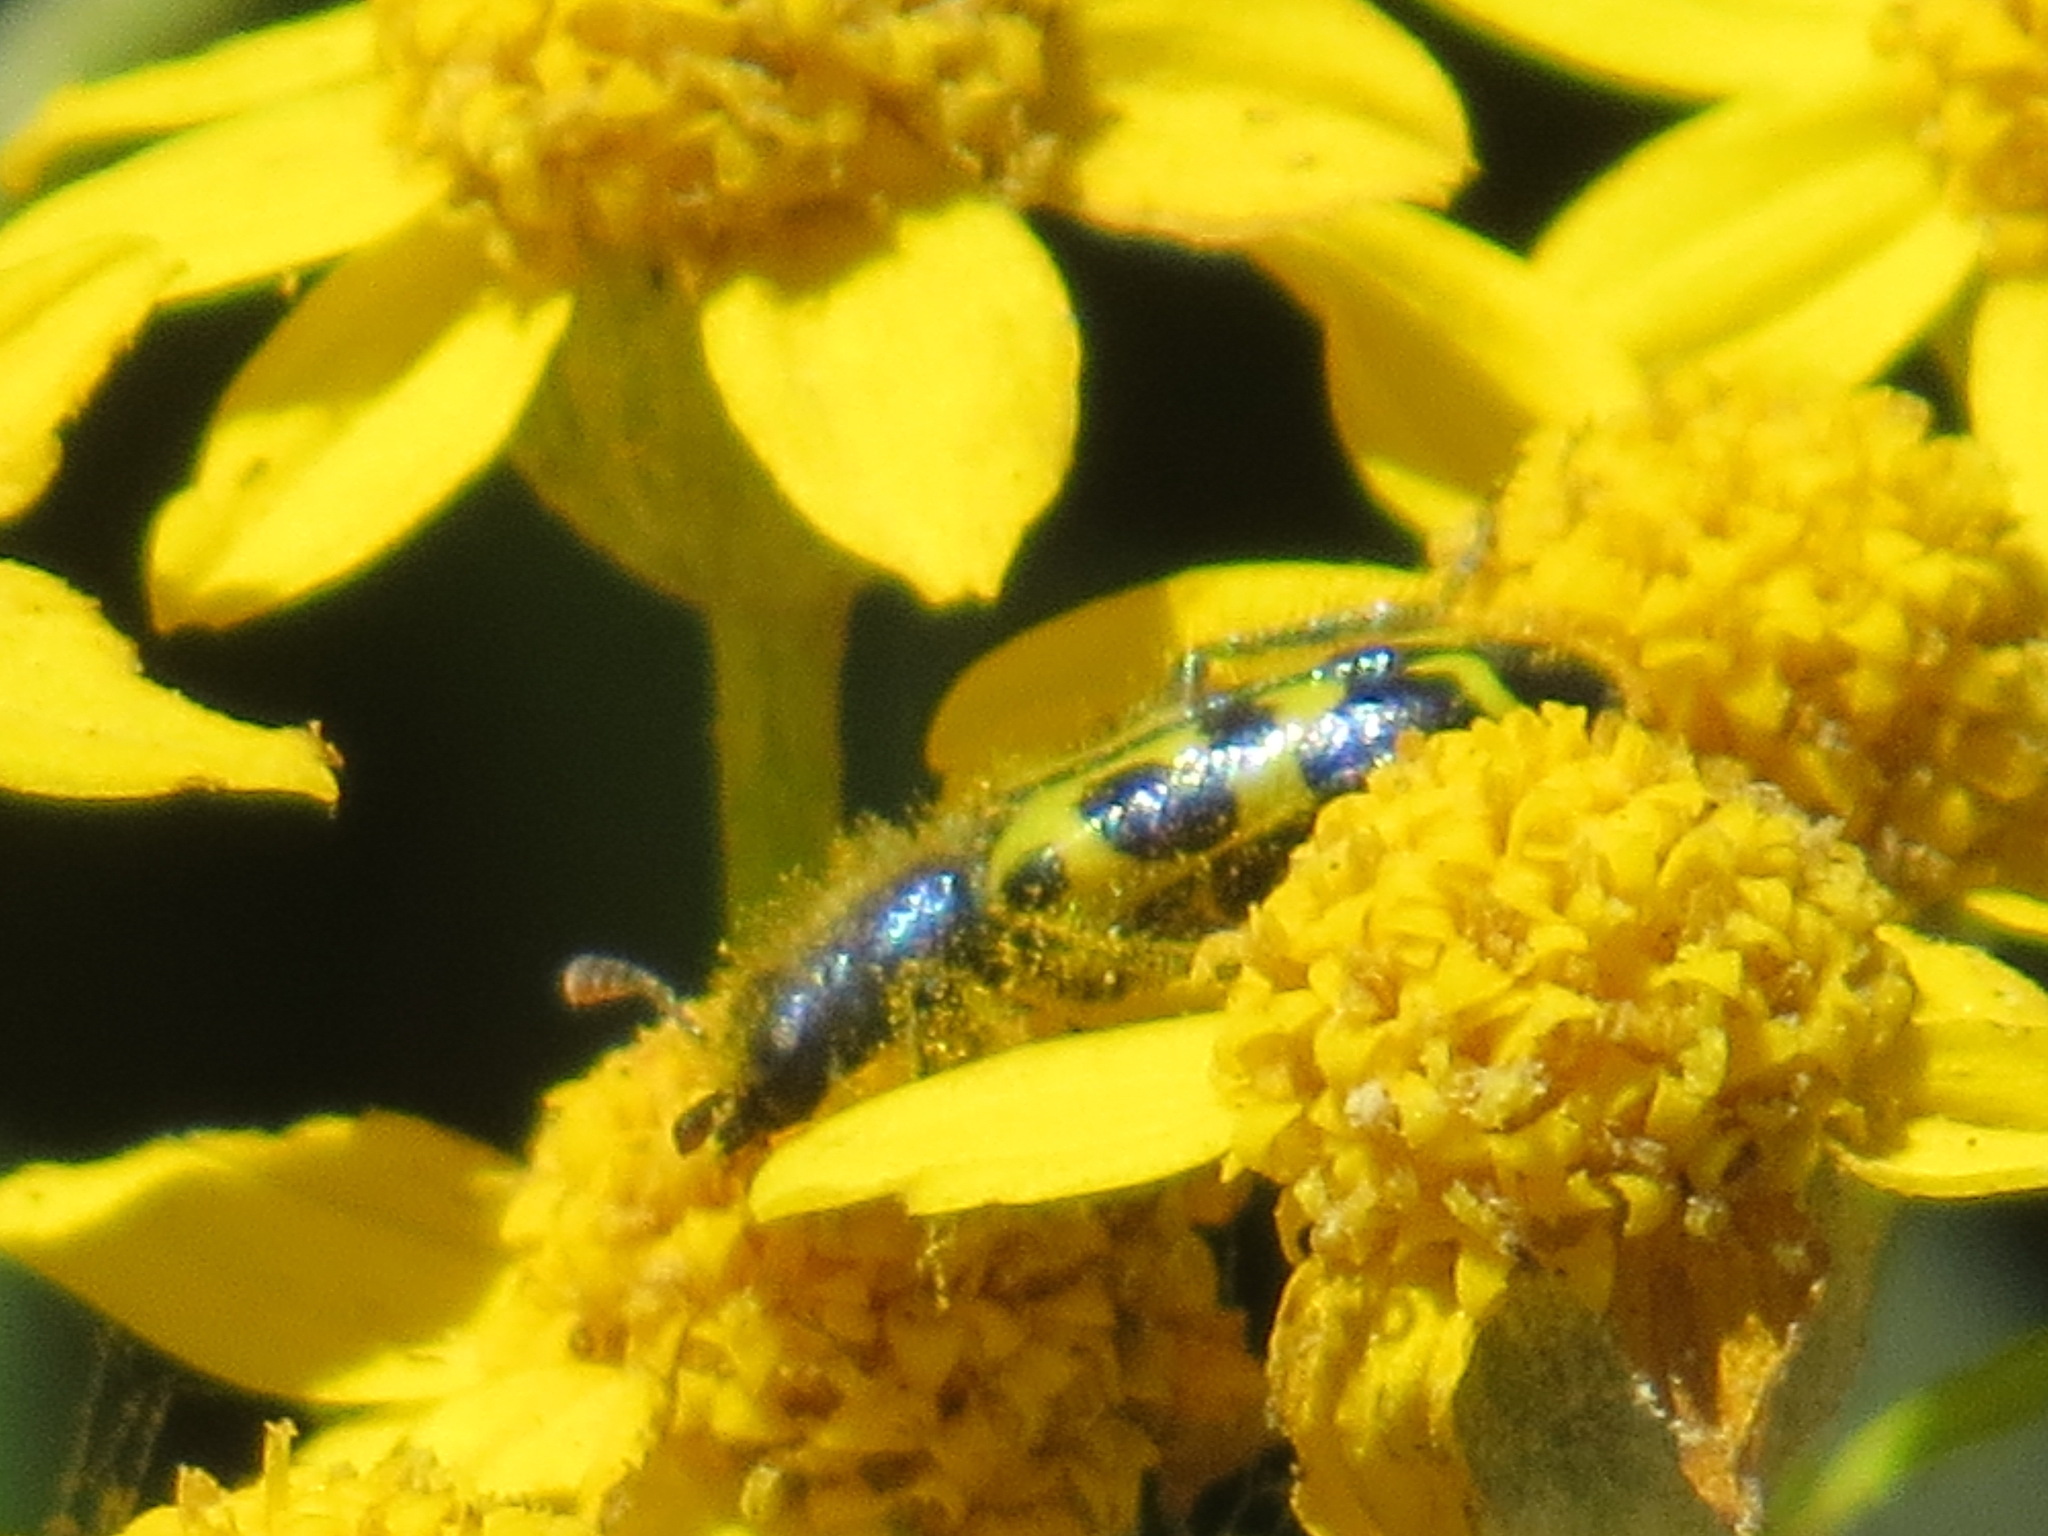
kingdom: Animalia
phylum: Arthropoda
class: Insecta
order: Coleoptera
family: Cleridae
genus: Trichodes
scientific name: Trichodes ornatus
